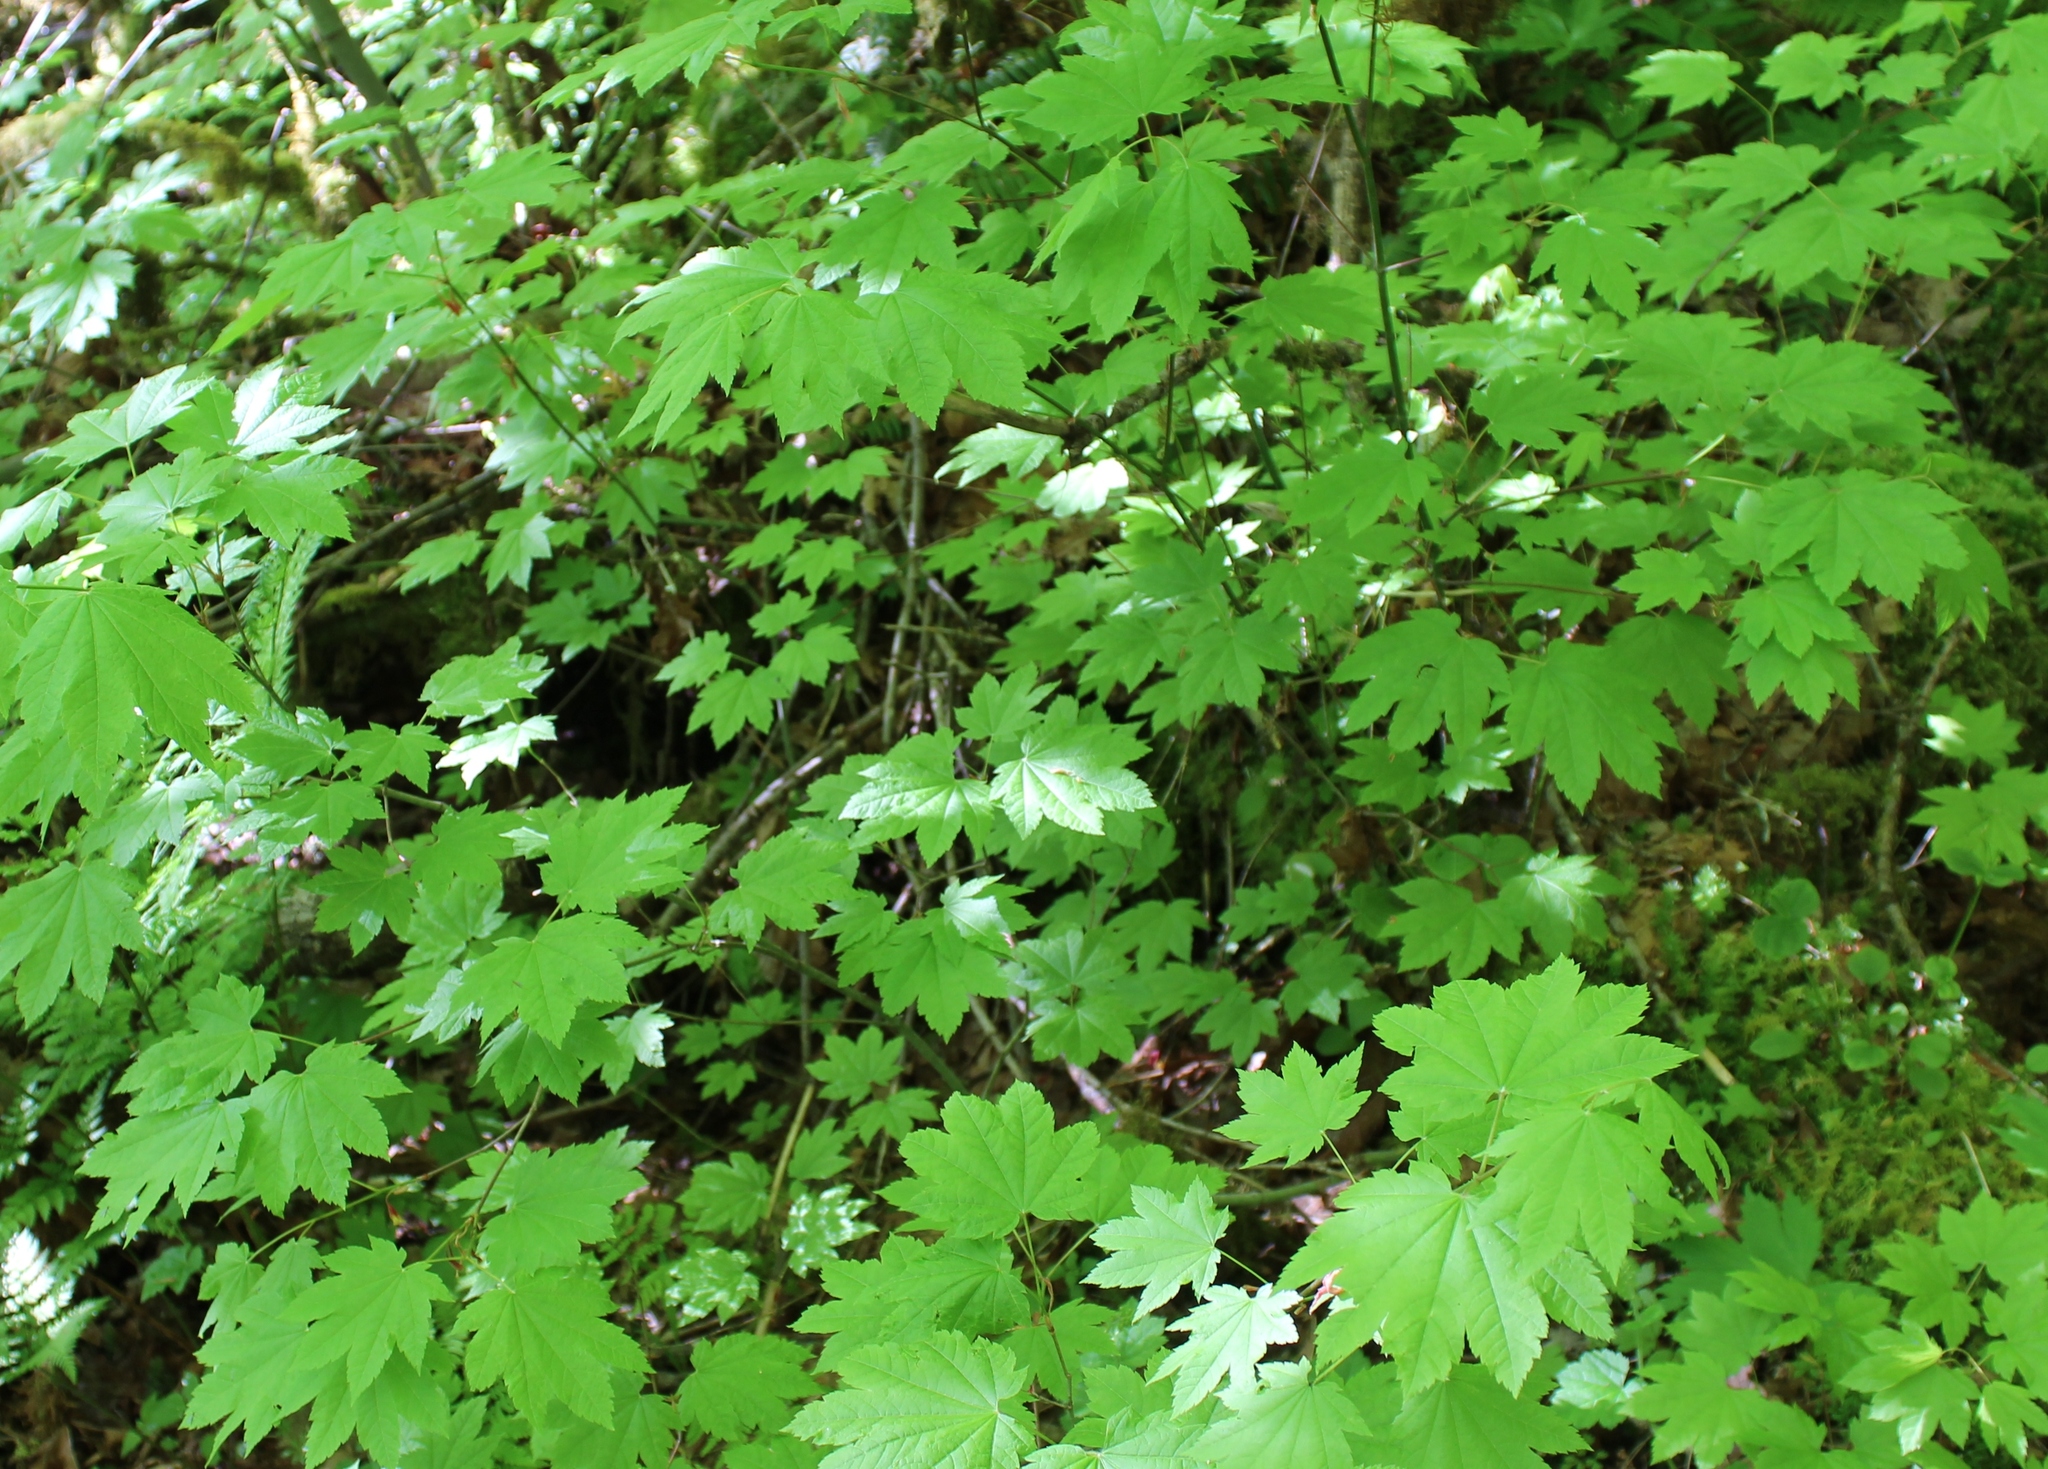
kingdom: Plantae
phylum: Tracheophyta
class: Magnoliopsida
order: Sapindales
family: Sapindaceae
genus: Acer
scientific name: Acer circinatum
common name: Vine maple
